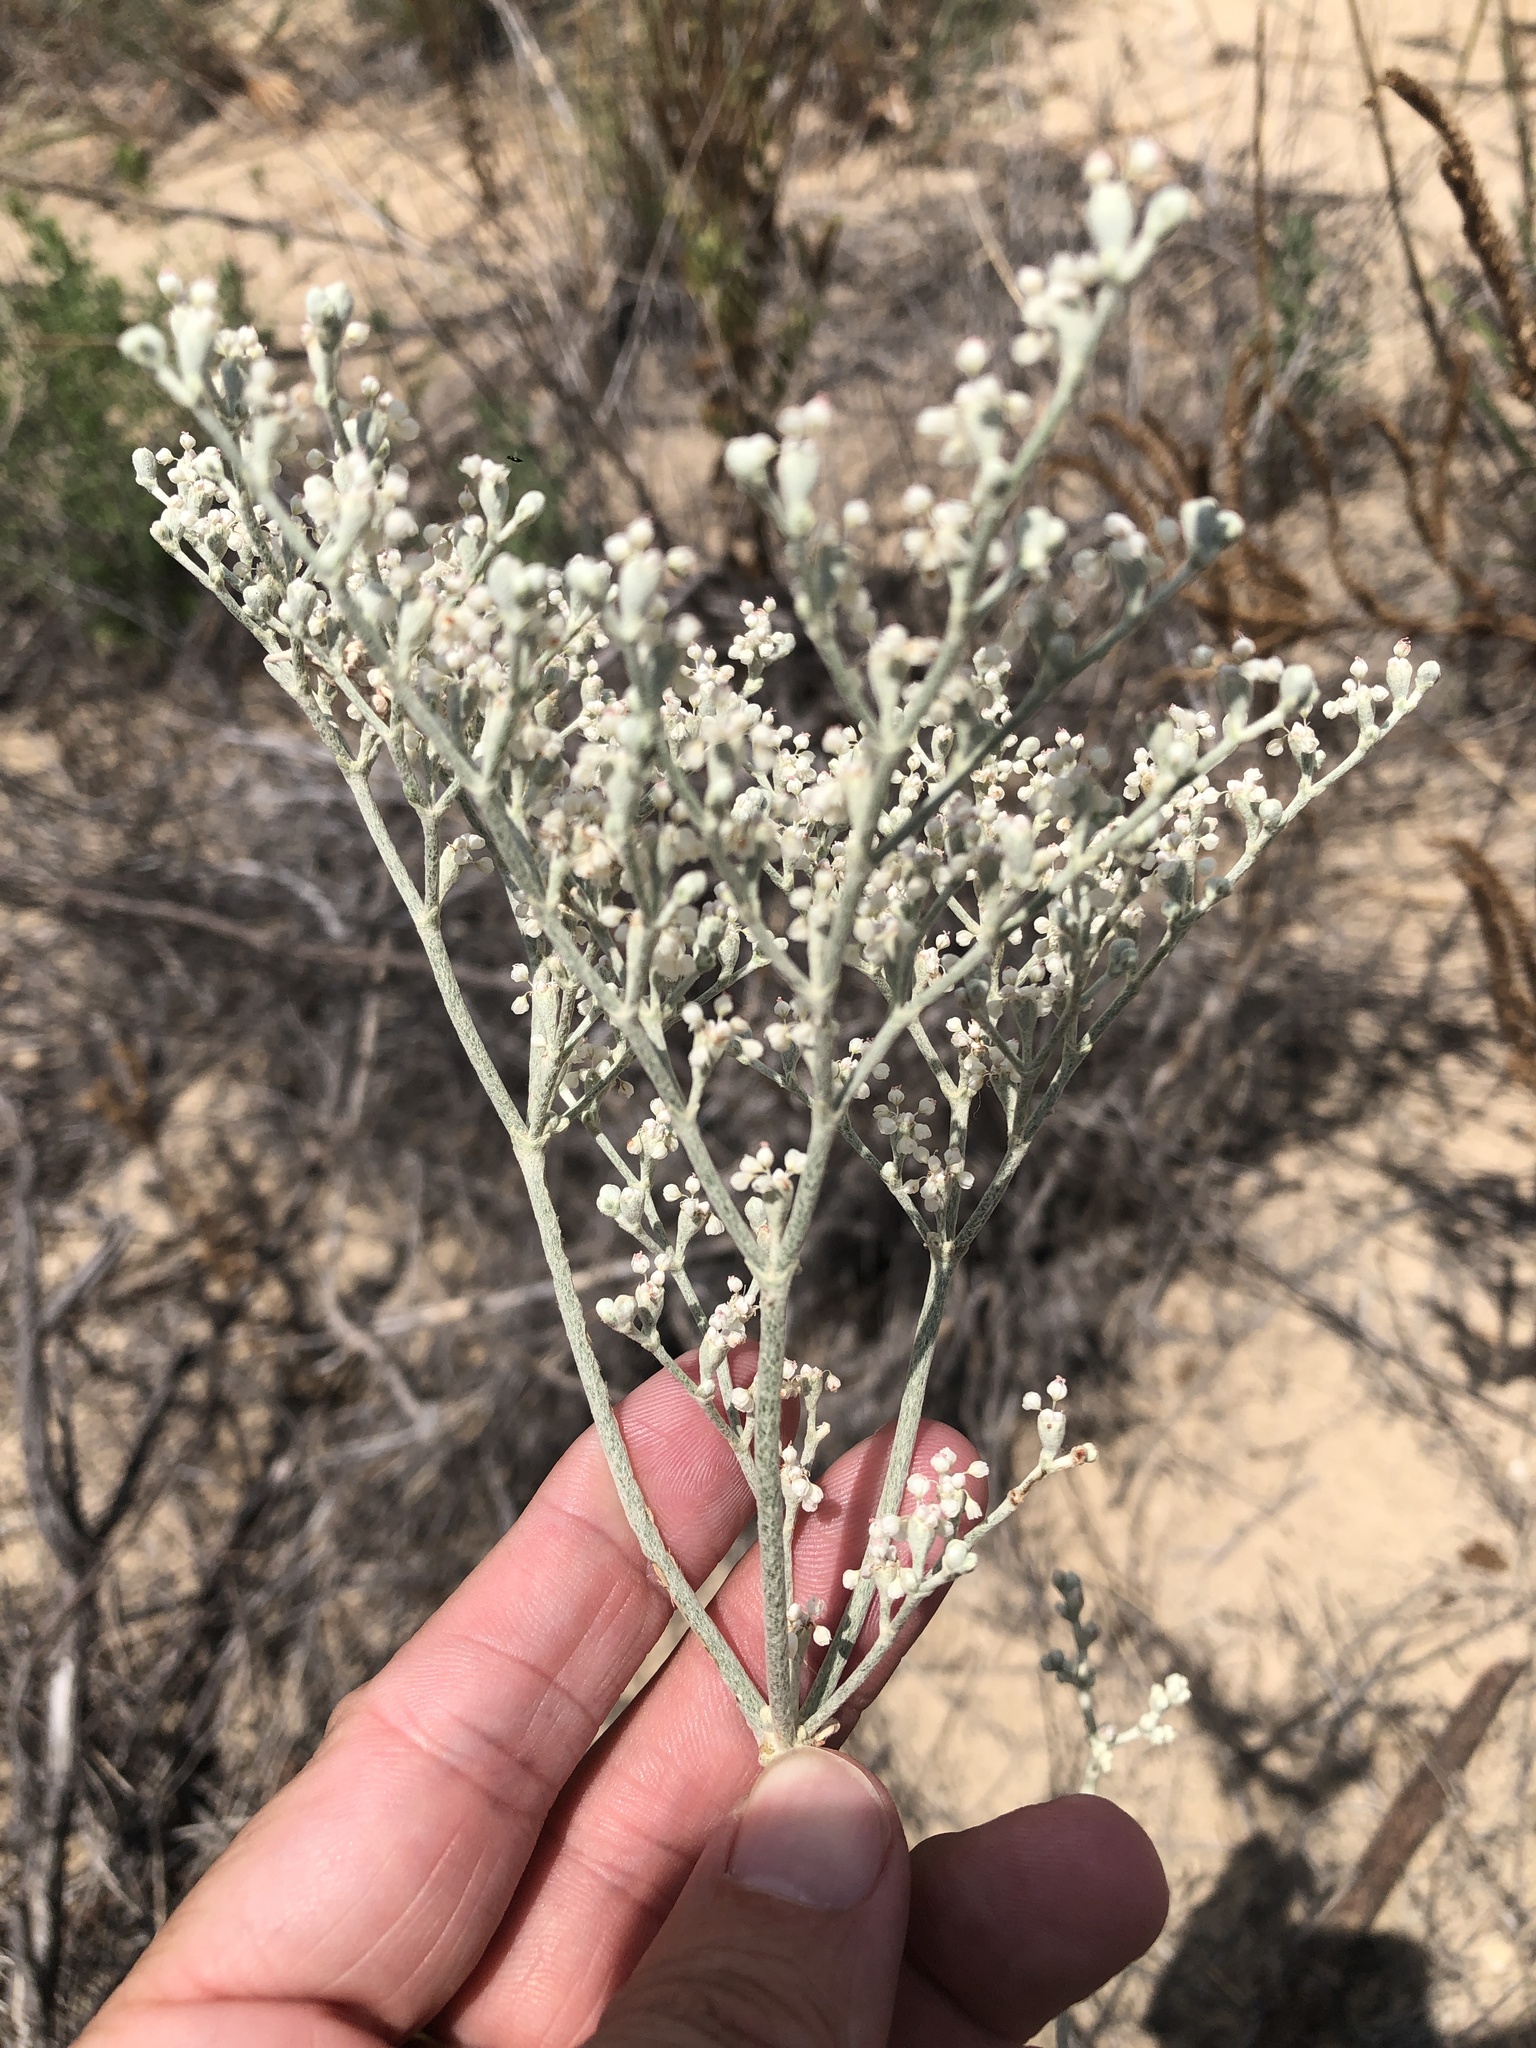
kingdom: Plantae
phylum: Tracheophyta
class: Magnoliopsida
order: Caryophyllales
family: Polygonaceae
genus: Eriogonum
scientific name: Eriogonum annuum
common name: Annual wild buckwheat
